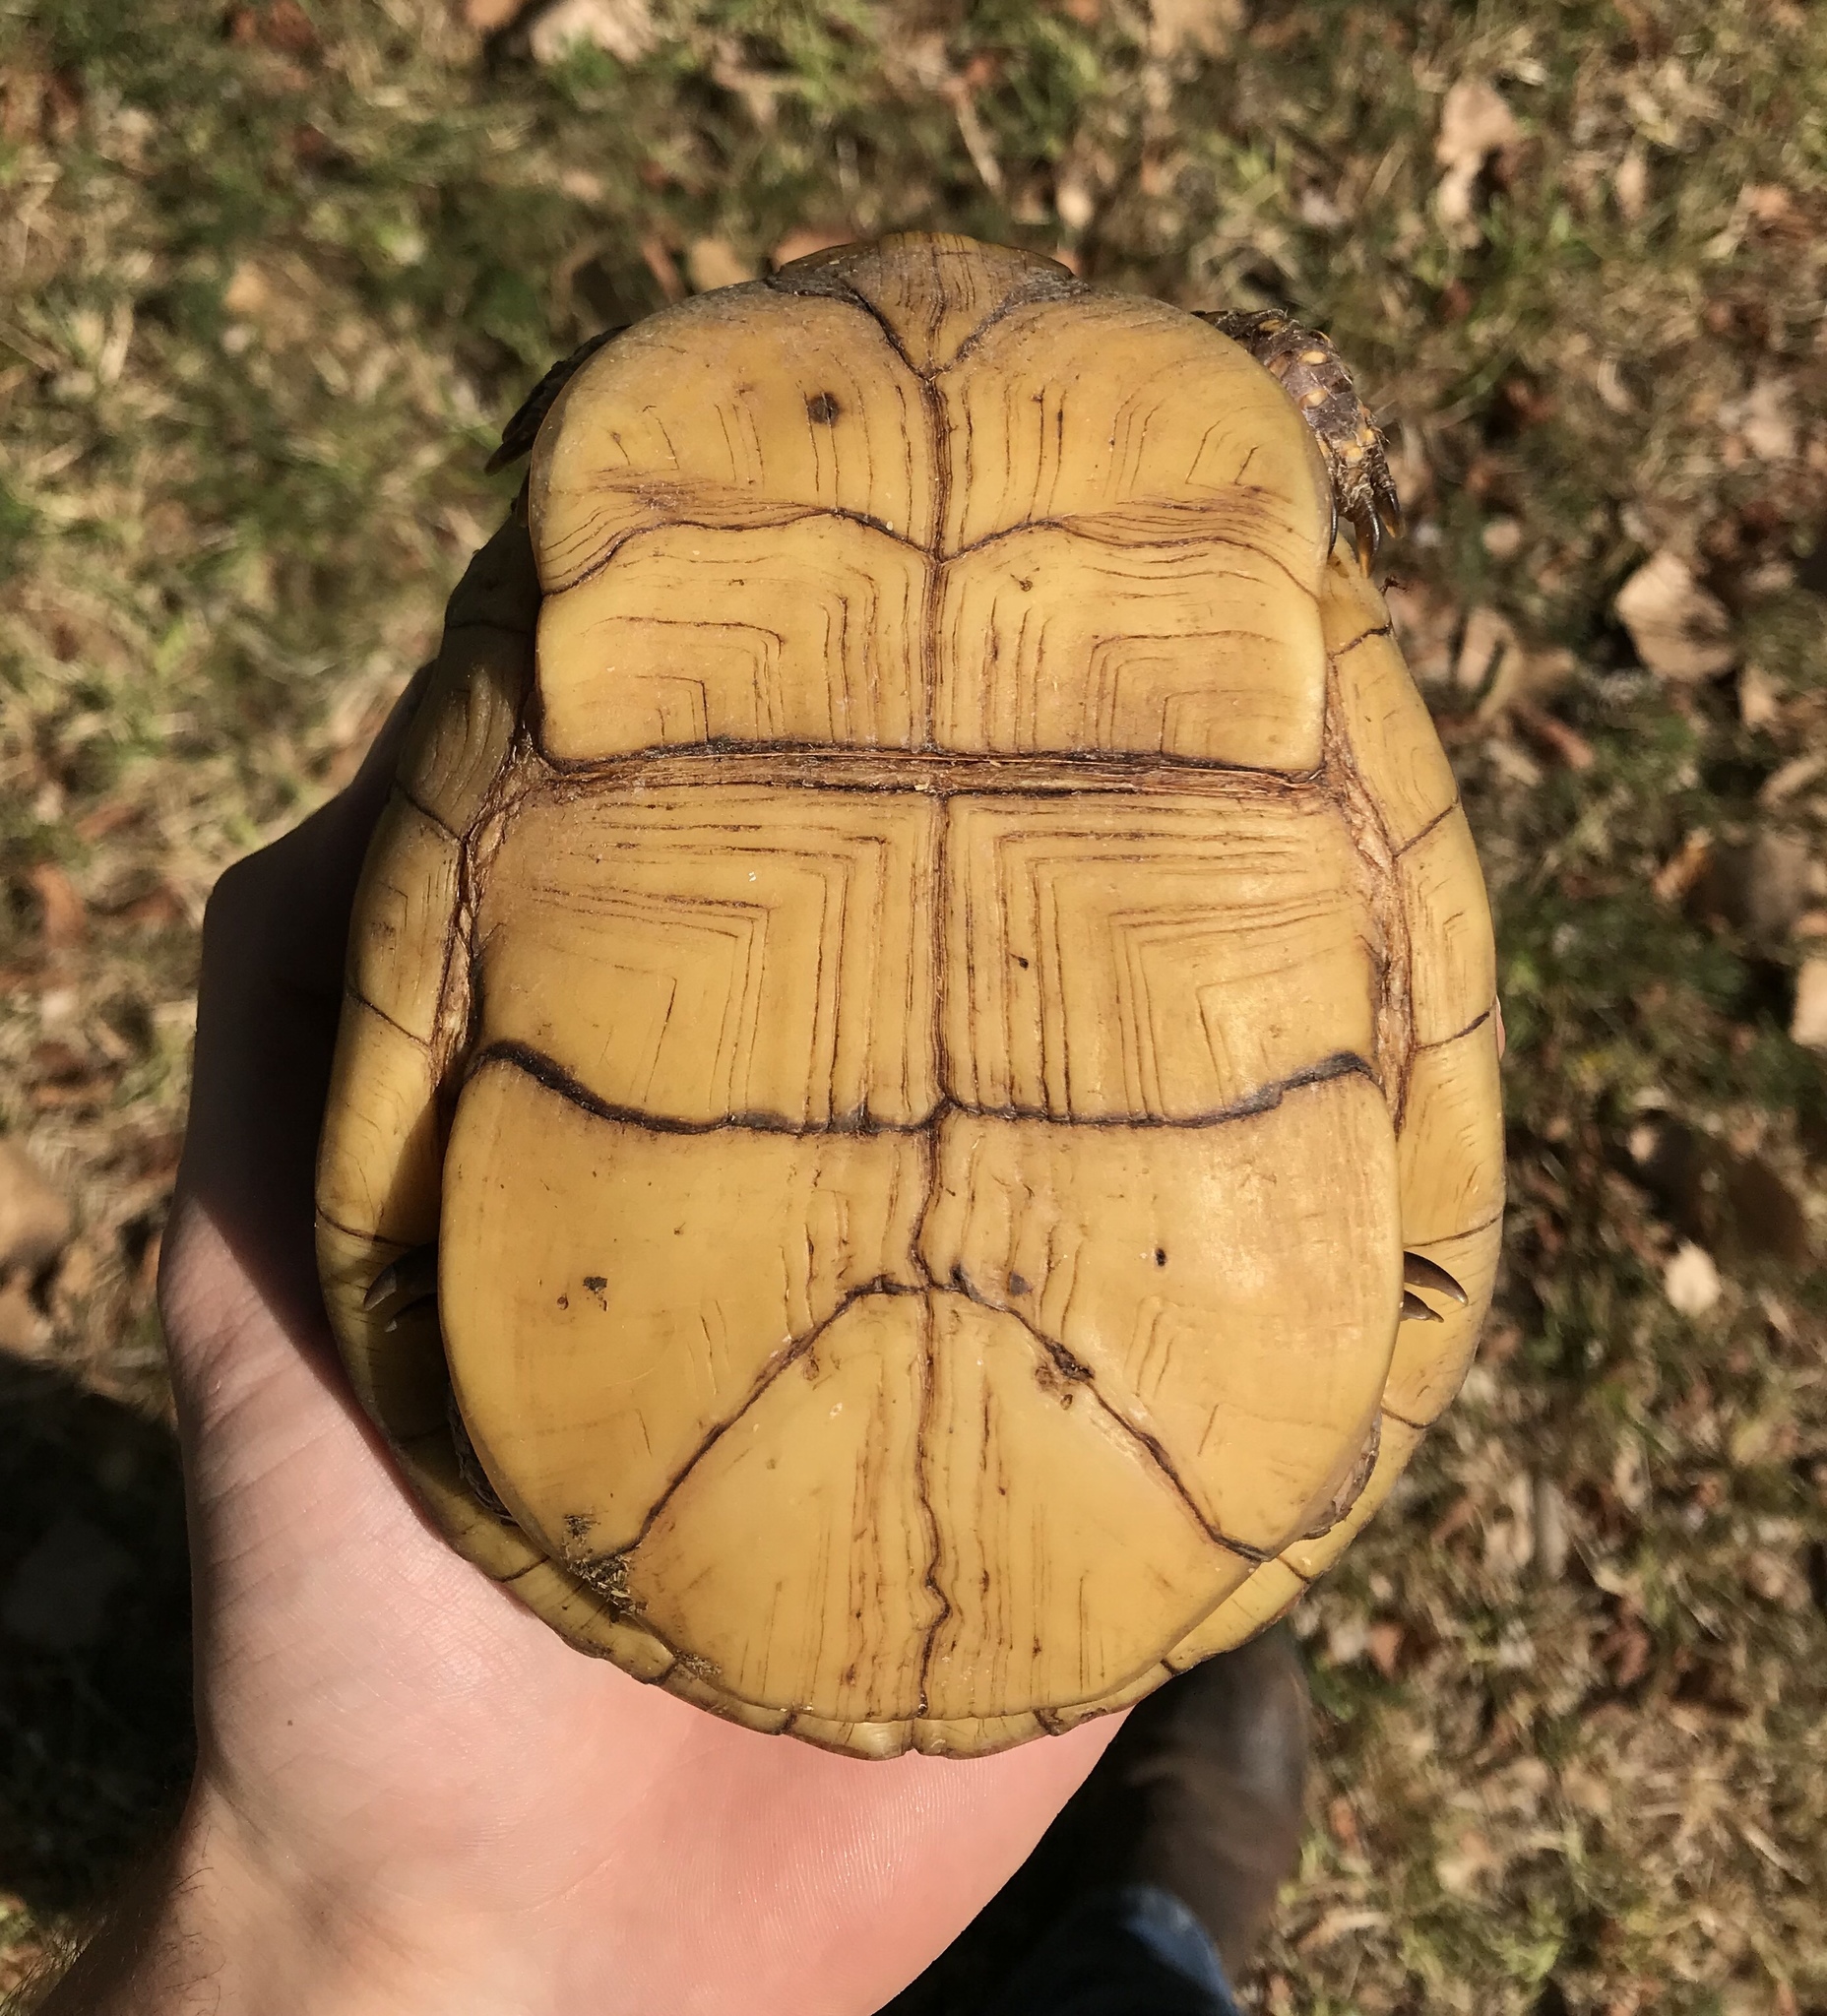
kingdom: Animalia
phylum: Chordata
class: Testudines
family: Emydidae
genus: Terrapene
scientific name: Terrapene carolina
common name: Common box turtle
